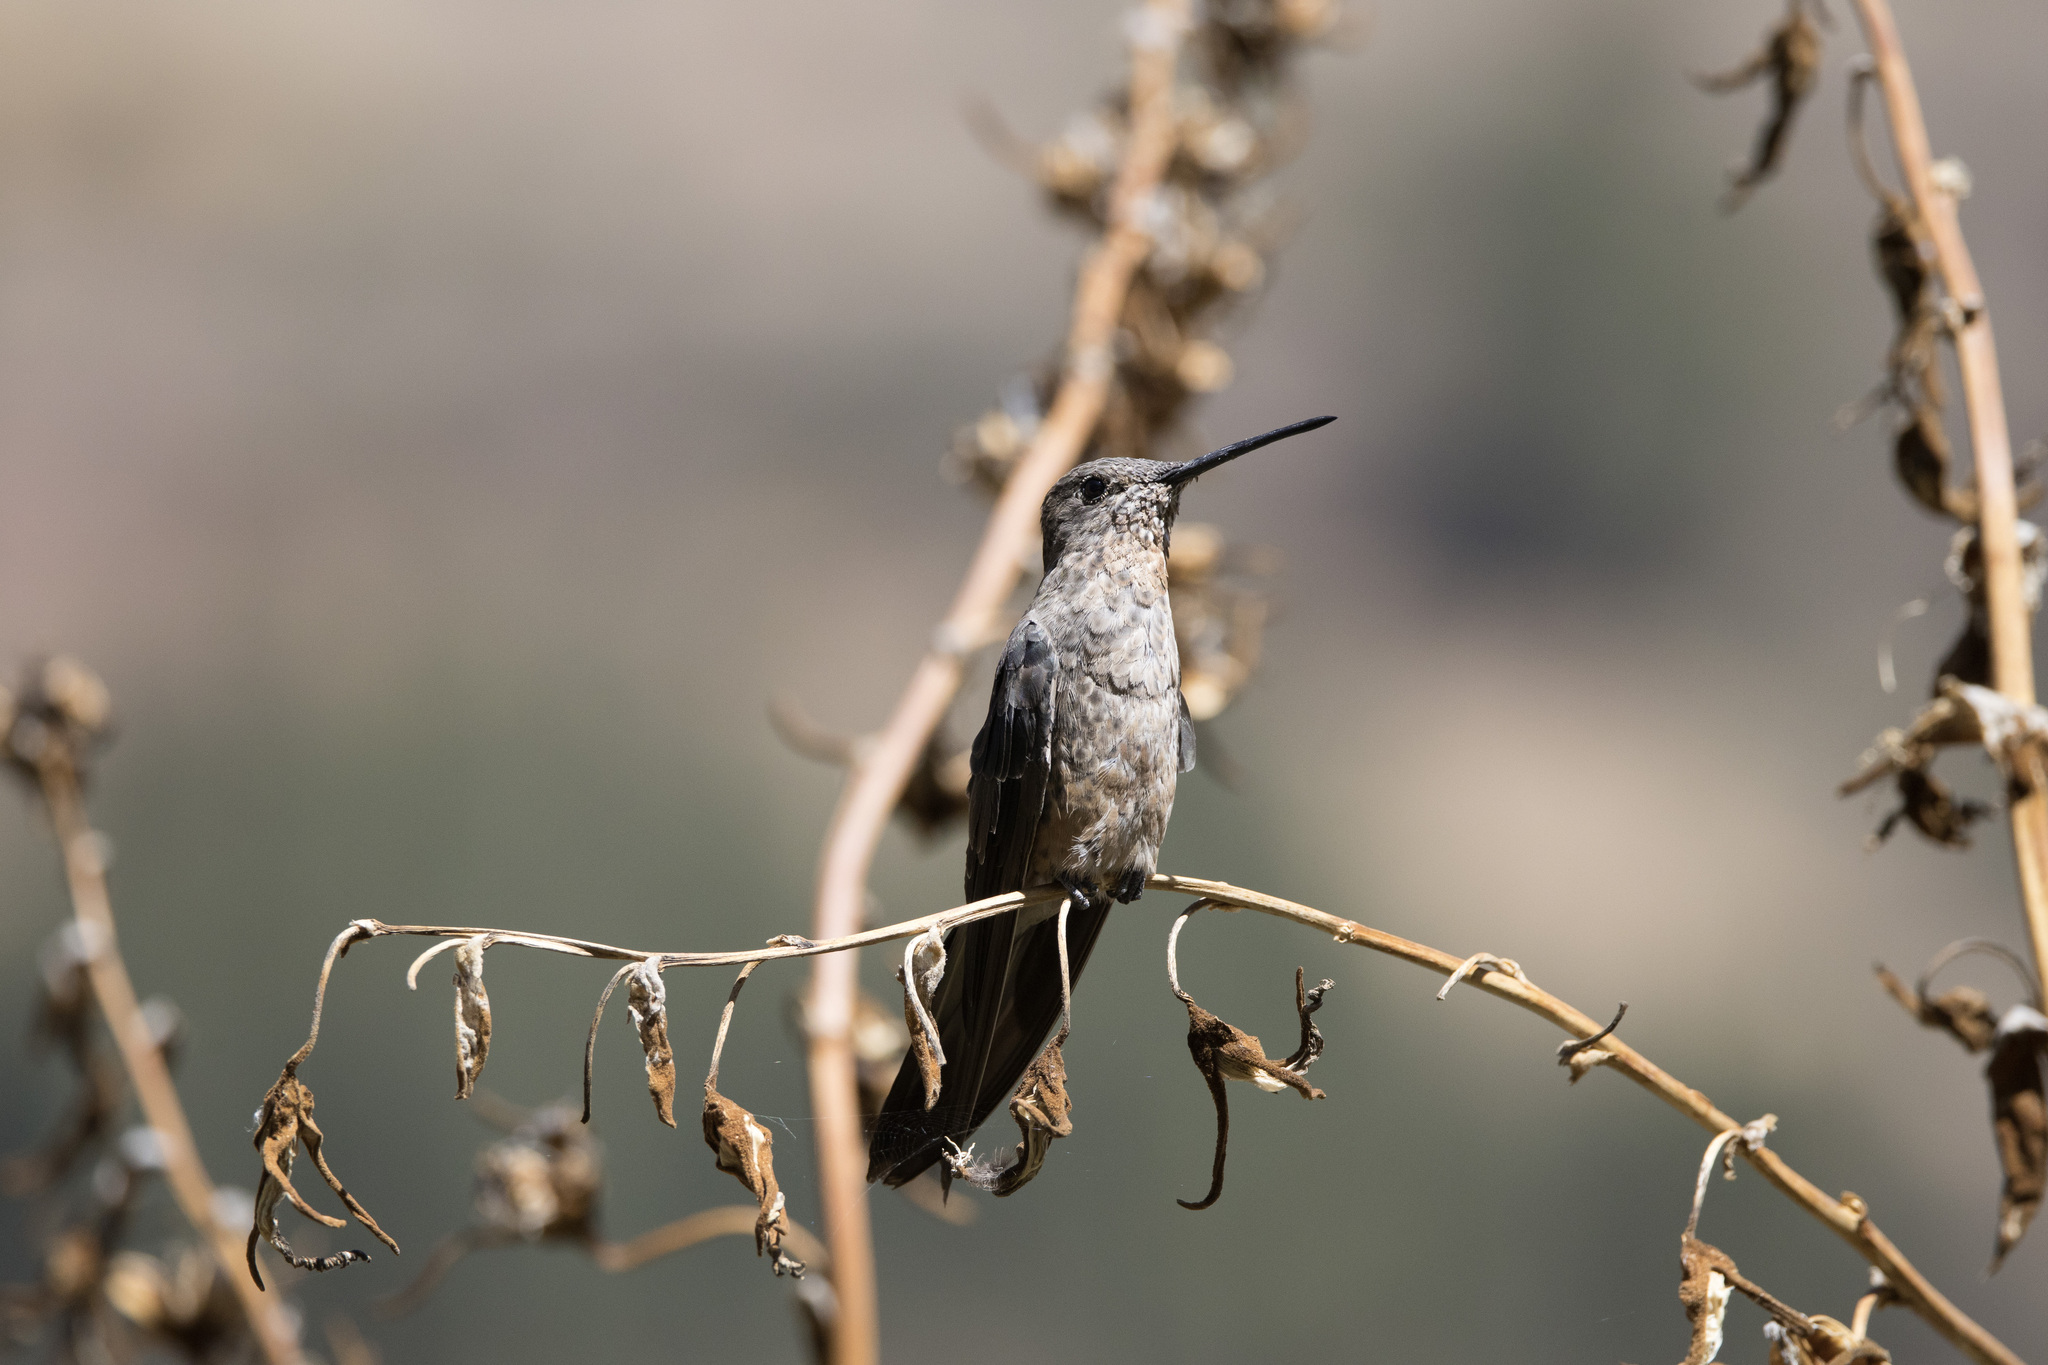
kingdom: Animalia
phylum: Chordata
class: Aves
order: Apodiformes
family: Trochilidae
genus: Patagona
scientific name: Patagona gigas
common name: Giant hummingbird
